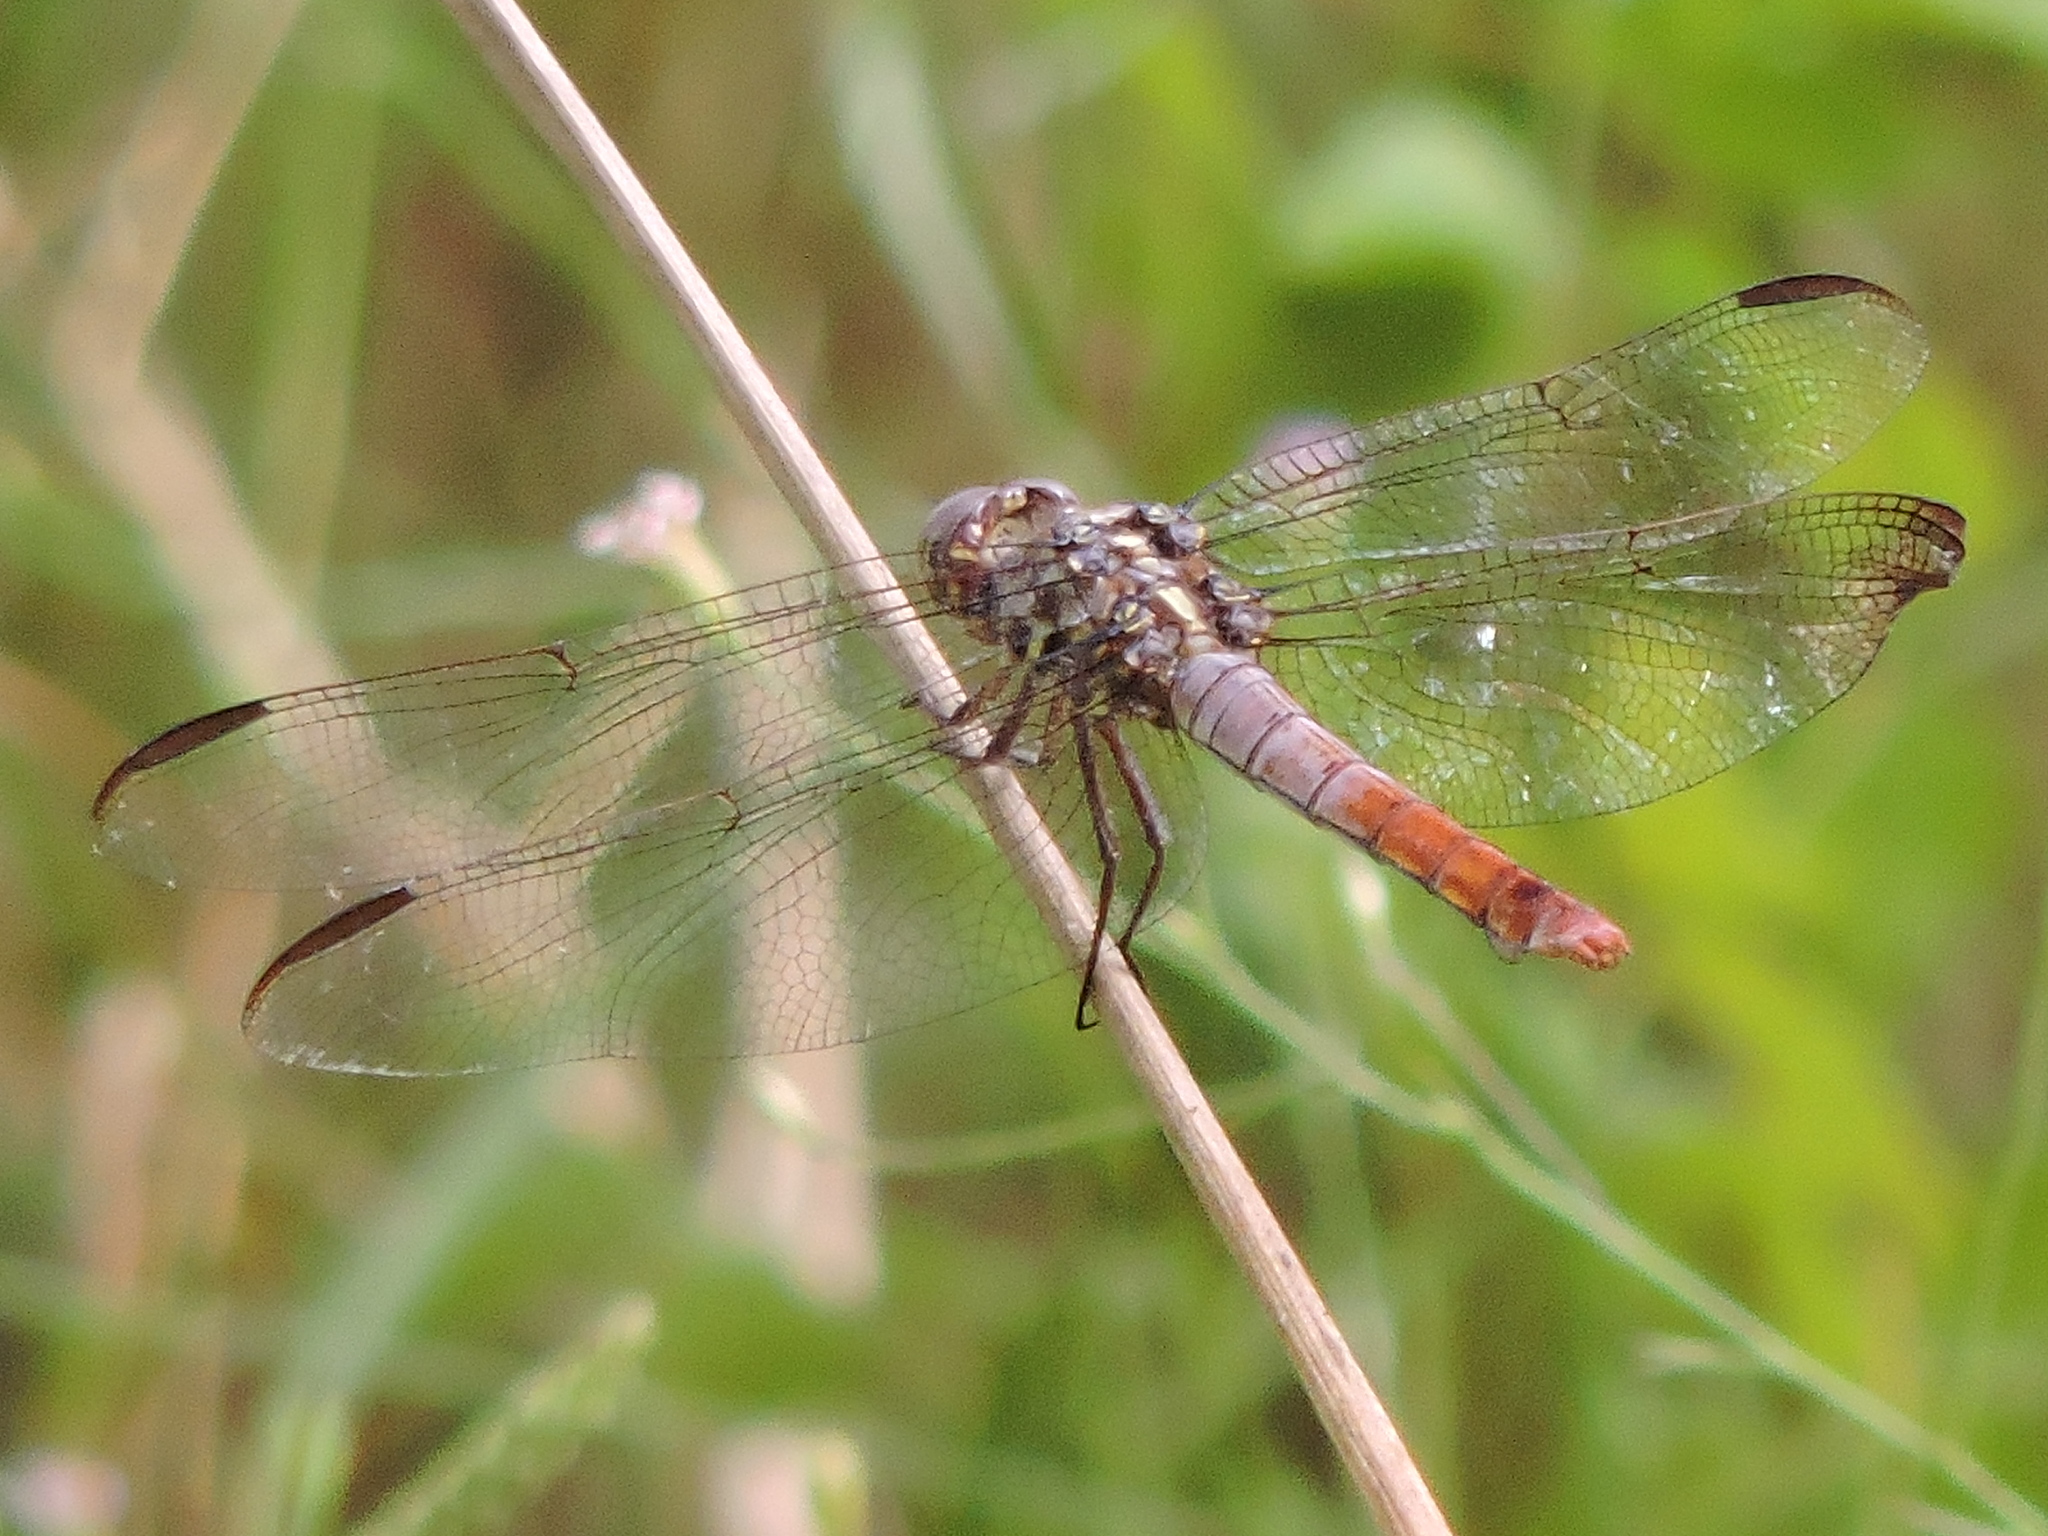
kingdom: Animalia
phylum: Arthropoda
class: Insecta
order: Odonata
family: Libellulidae
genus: Orthemis
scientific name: Orthemis ferruginea
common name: Roseate skimmer
